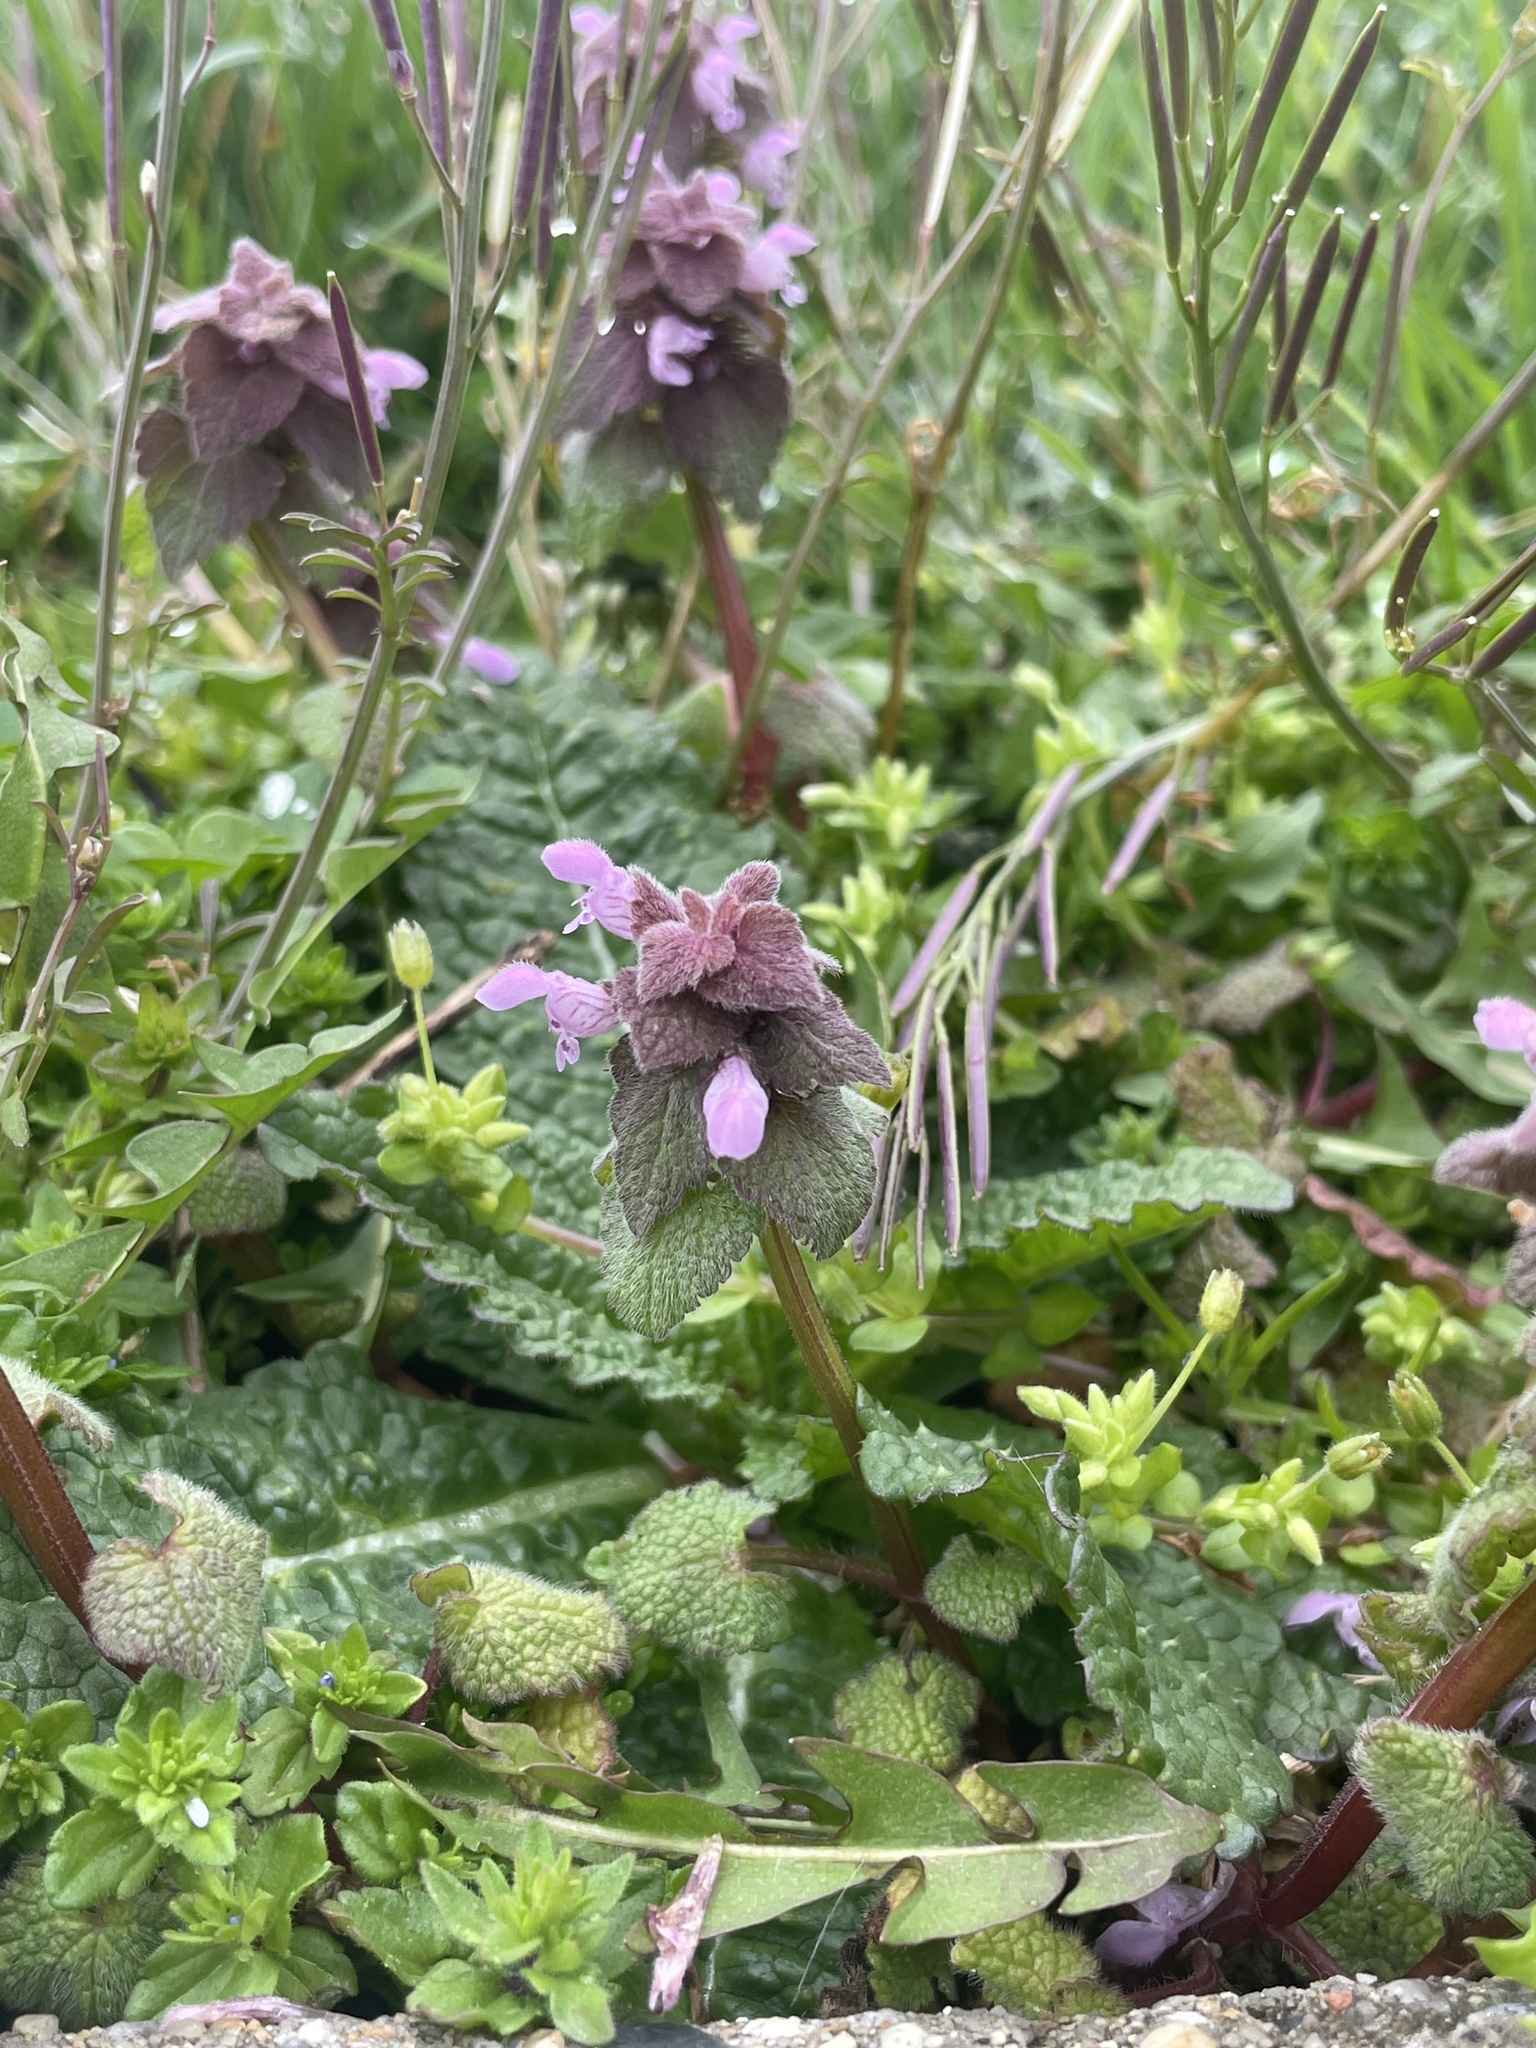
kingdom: Plantae
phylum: Tracheophyta
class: Magnoliopsida
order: Lamiales
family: Lamiaceae
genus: Lamium
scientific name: Lamium purpureum
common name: Red dead-nettle
